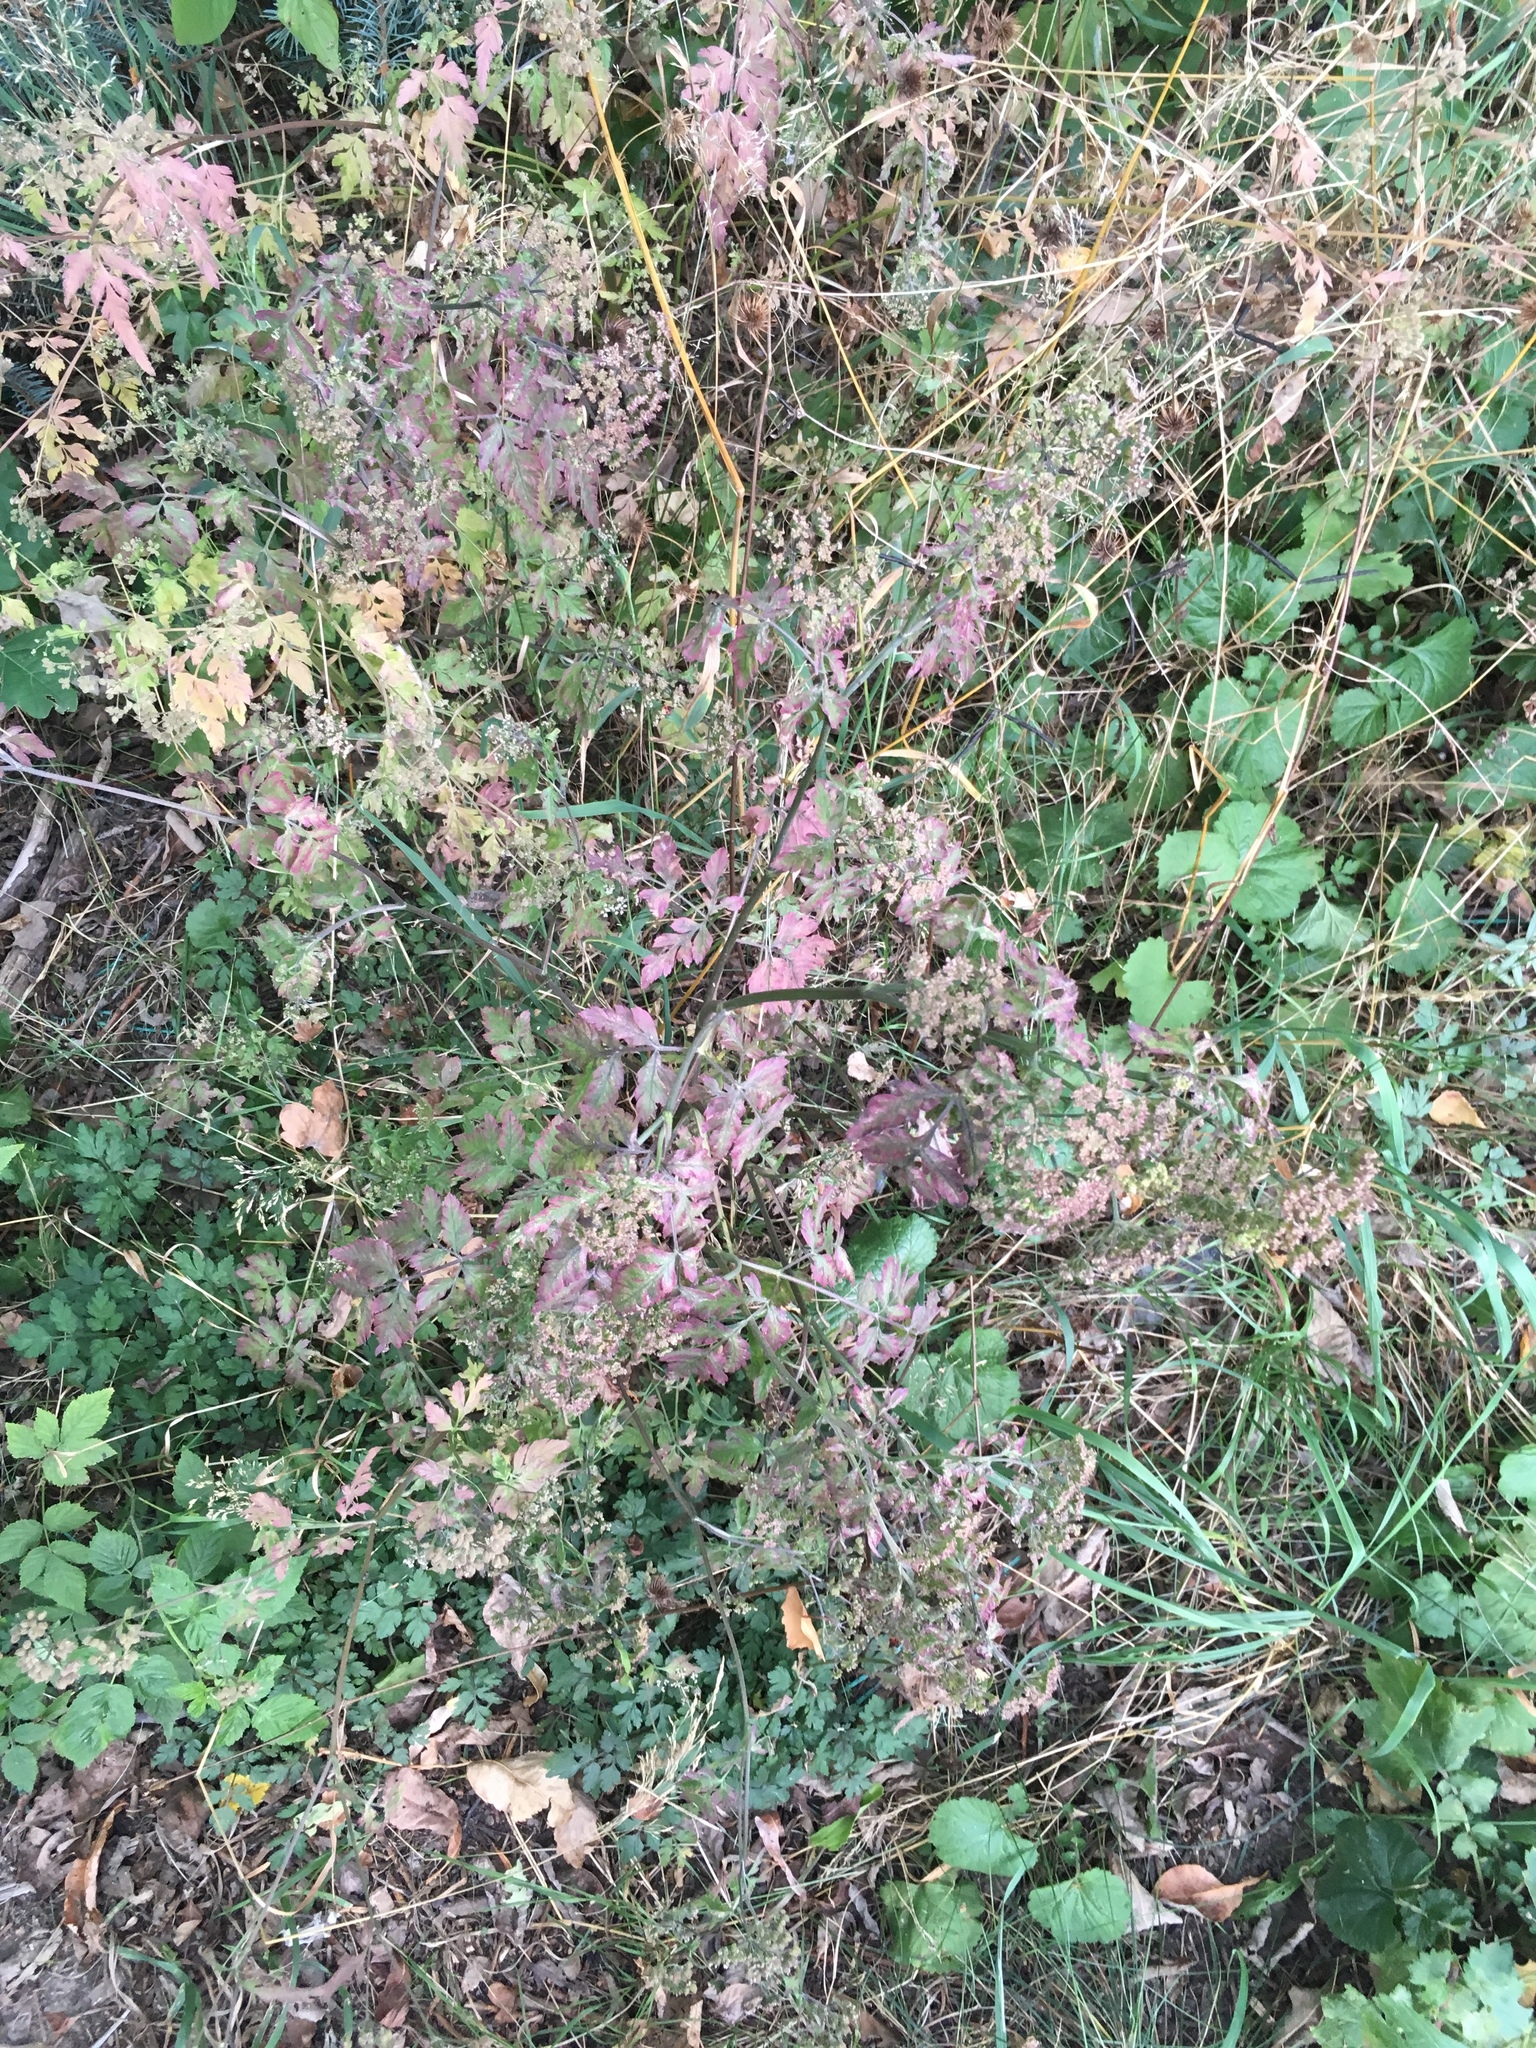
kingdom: Plantae
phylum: Tracheophyta
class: Magnoliopsida
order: Lamiales
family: Lamiaceae
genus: Origanum
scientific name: Origanum vulgare
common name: Wild marjoram
